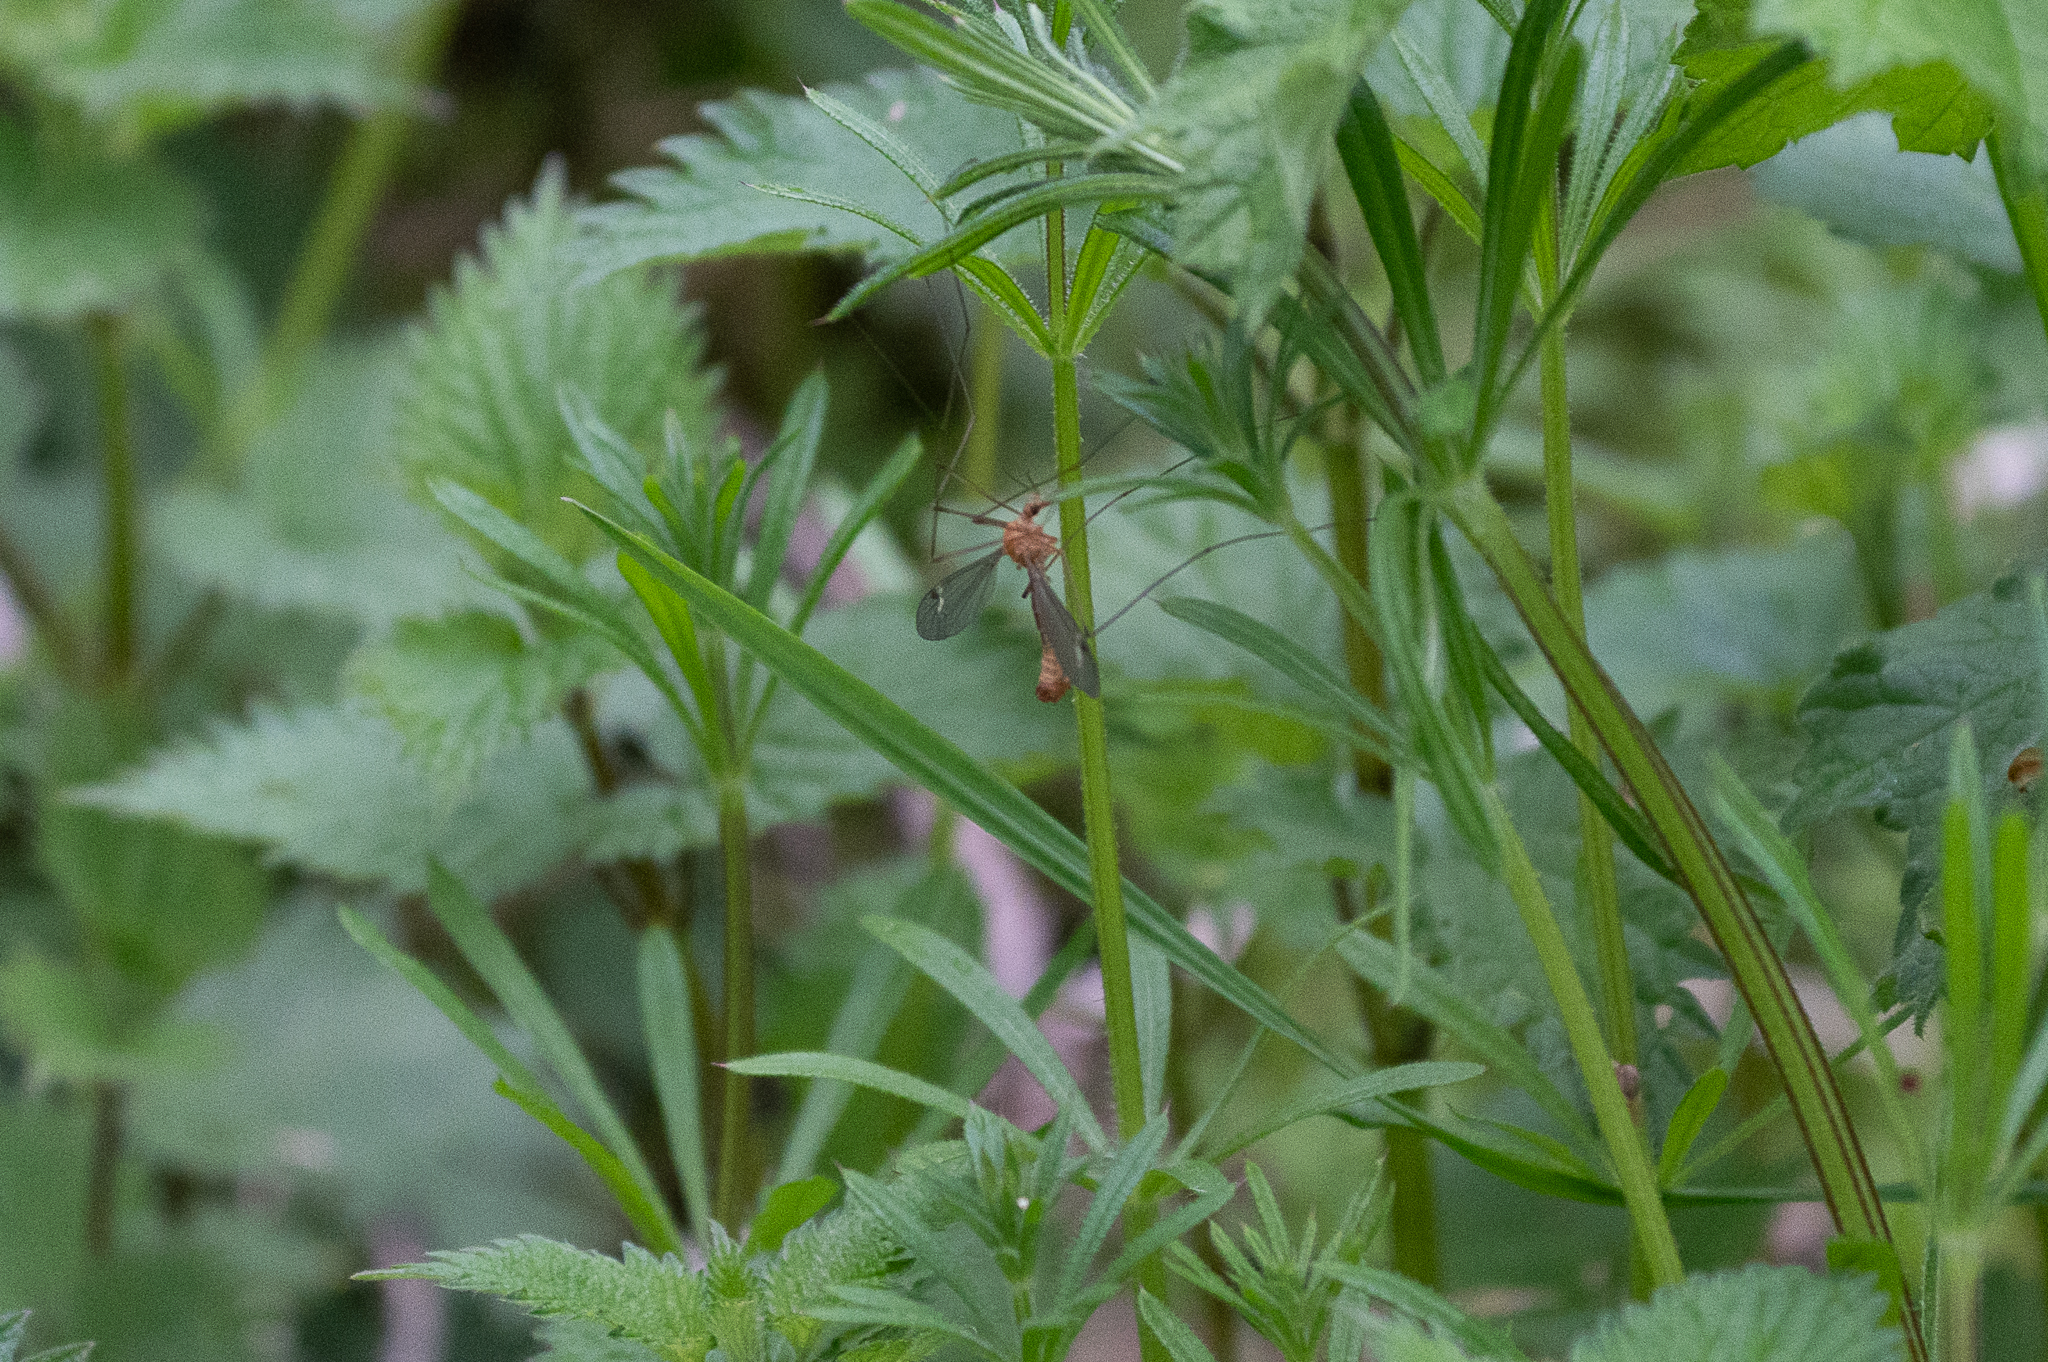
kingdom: Animalia
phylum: Arthropoda
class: Insecta
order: Diptera
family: Tipulidae
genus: Tipula
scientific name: Tipula lunata
